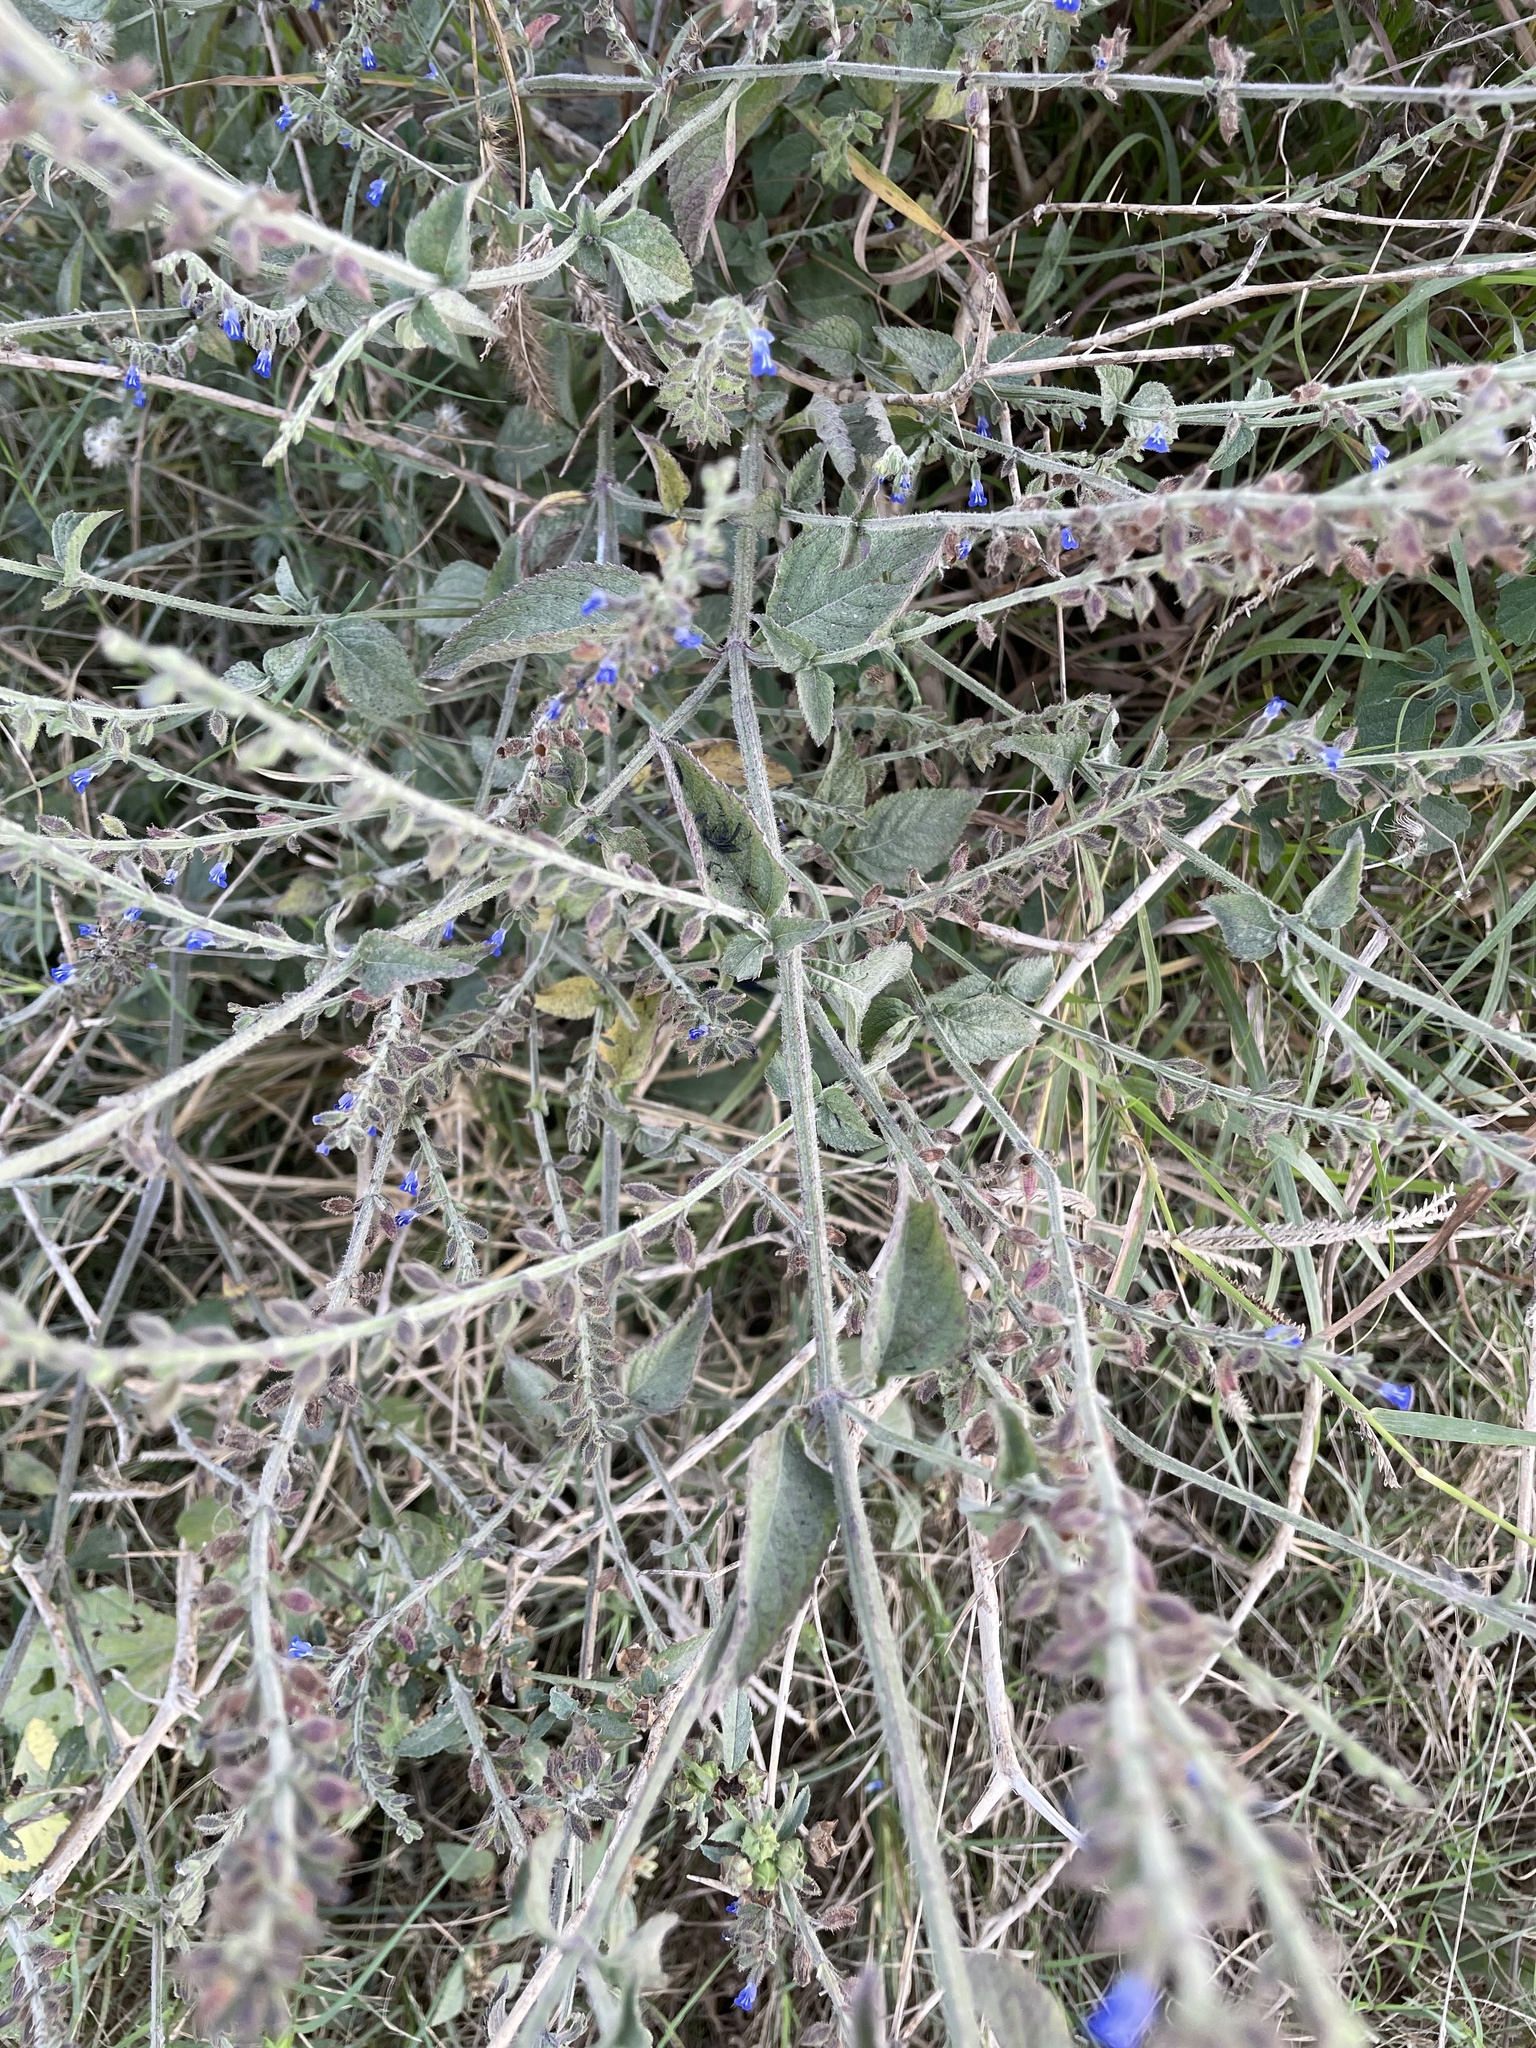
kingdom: Plantae
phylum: Tracheophyta
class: Magnoliopsida
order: Lamiales
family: Lamiaceae
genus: Salvia
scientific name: Salvia misella
